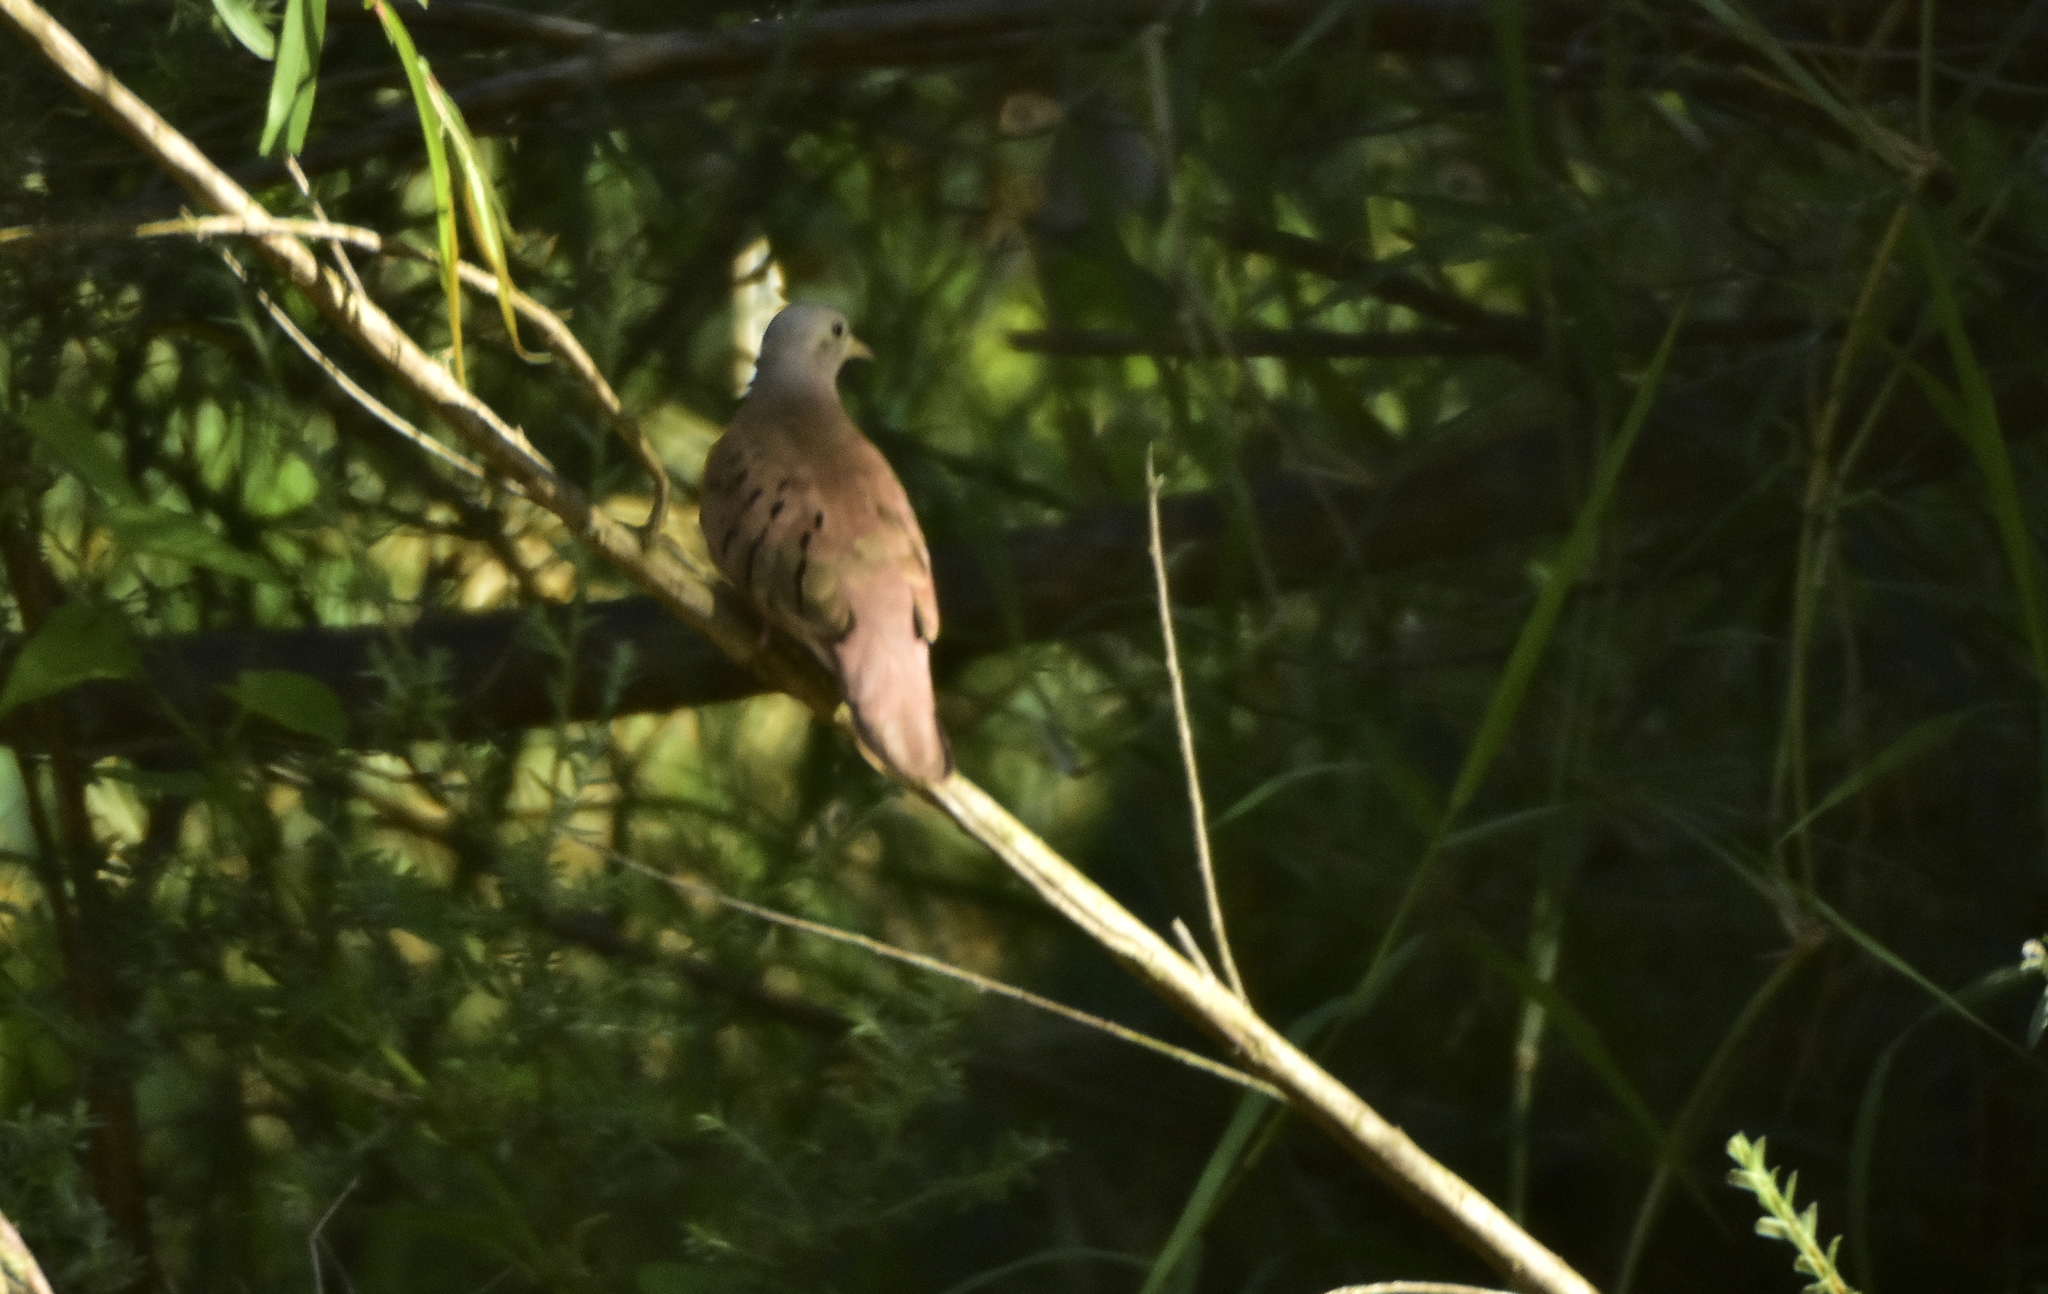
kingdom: Animalia
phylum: Chordata
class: Aves
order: Columbiformes
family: Columbidae
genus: Columbina
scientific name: Columbina talpacoti
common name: Ruddy ground dove
